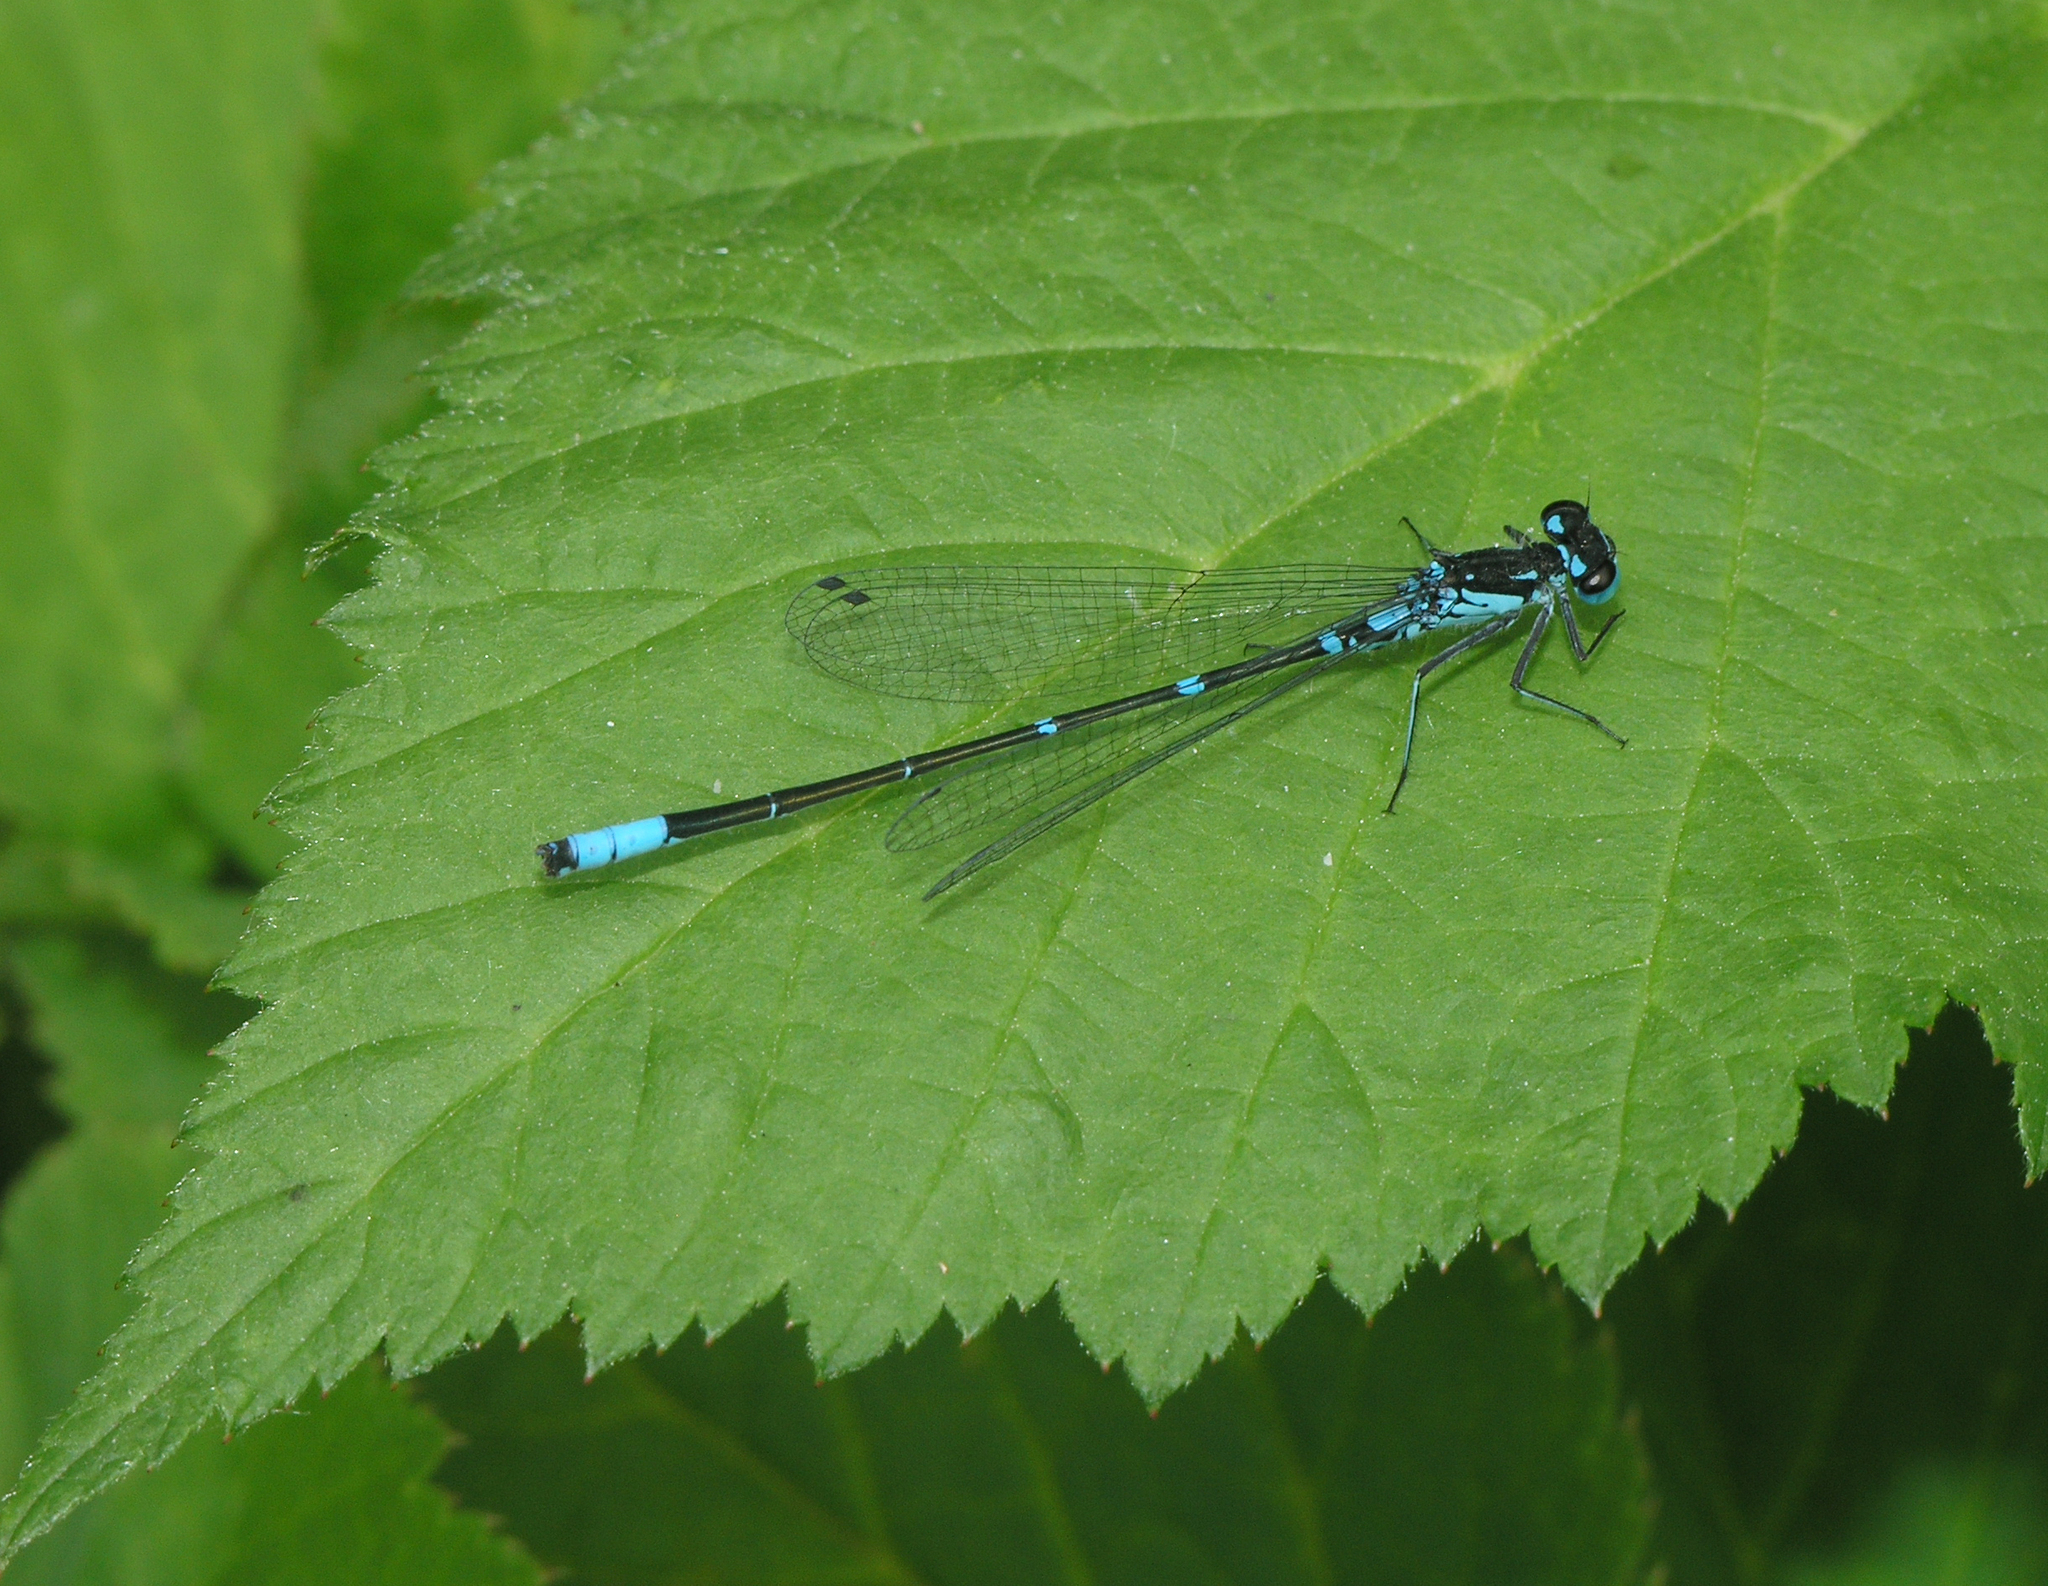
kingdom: Animalia
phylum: Arthropoda
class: Insecta
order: Odonata
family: Coenagrionidae
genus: Coenagrion
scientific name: Coenagrion pulchellum
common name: Variable bluet
